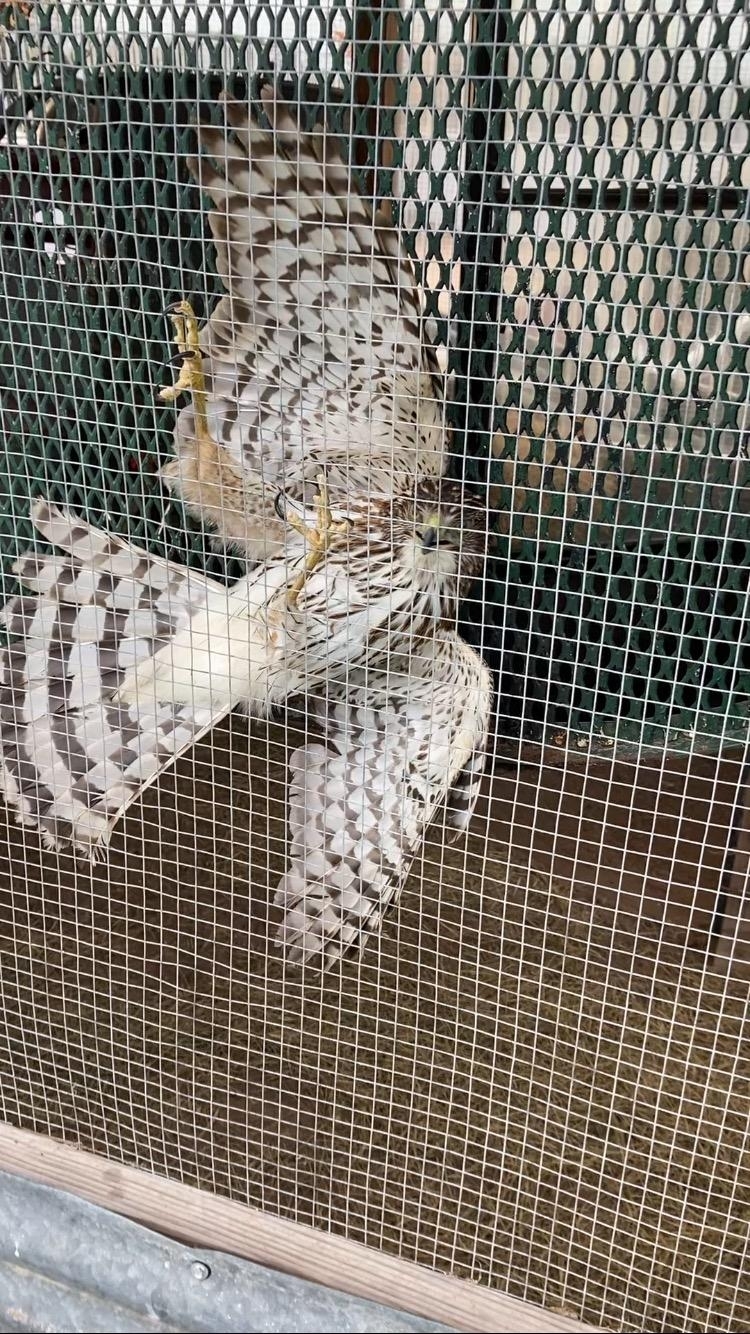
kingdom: Animalia
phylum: Chordata
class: Aves
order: Accipitriformes
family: Accipitridae
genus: Accipiter
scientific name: Accipiter cooperii
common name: Cooper's hawk
